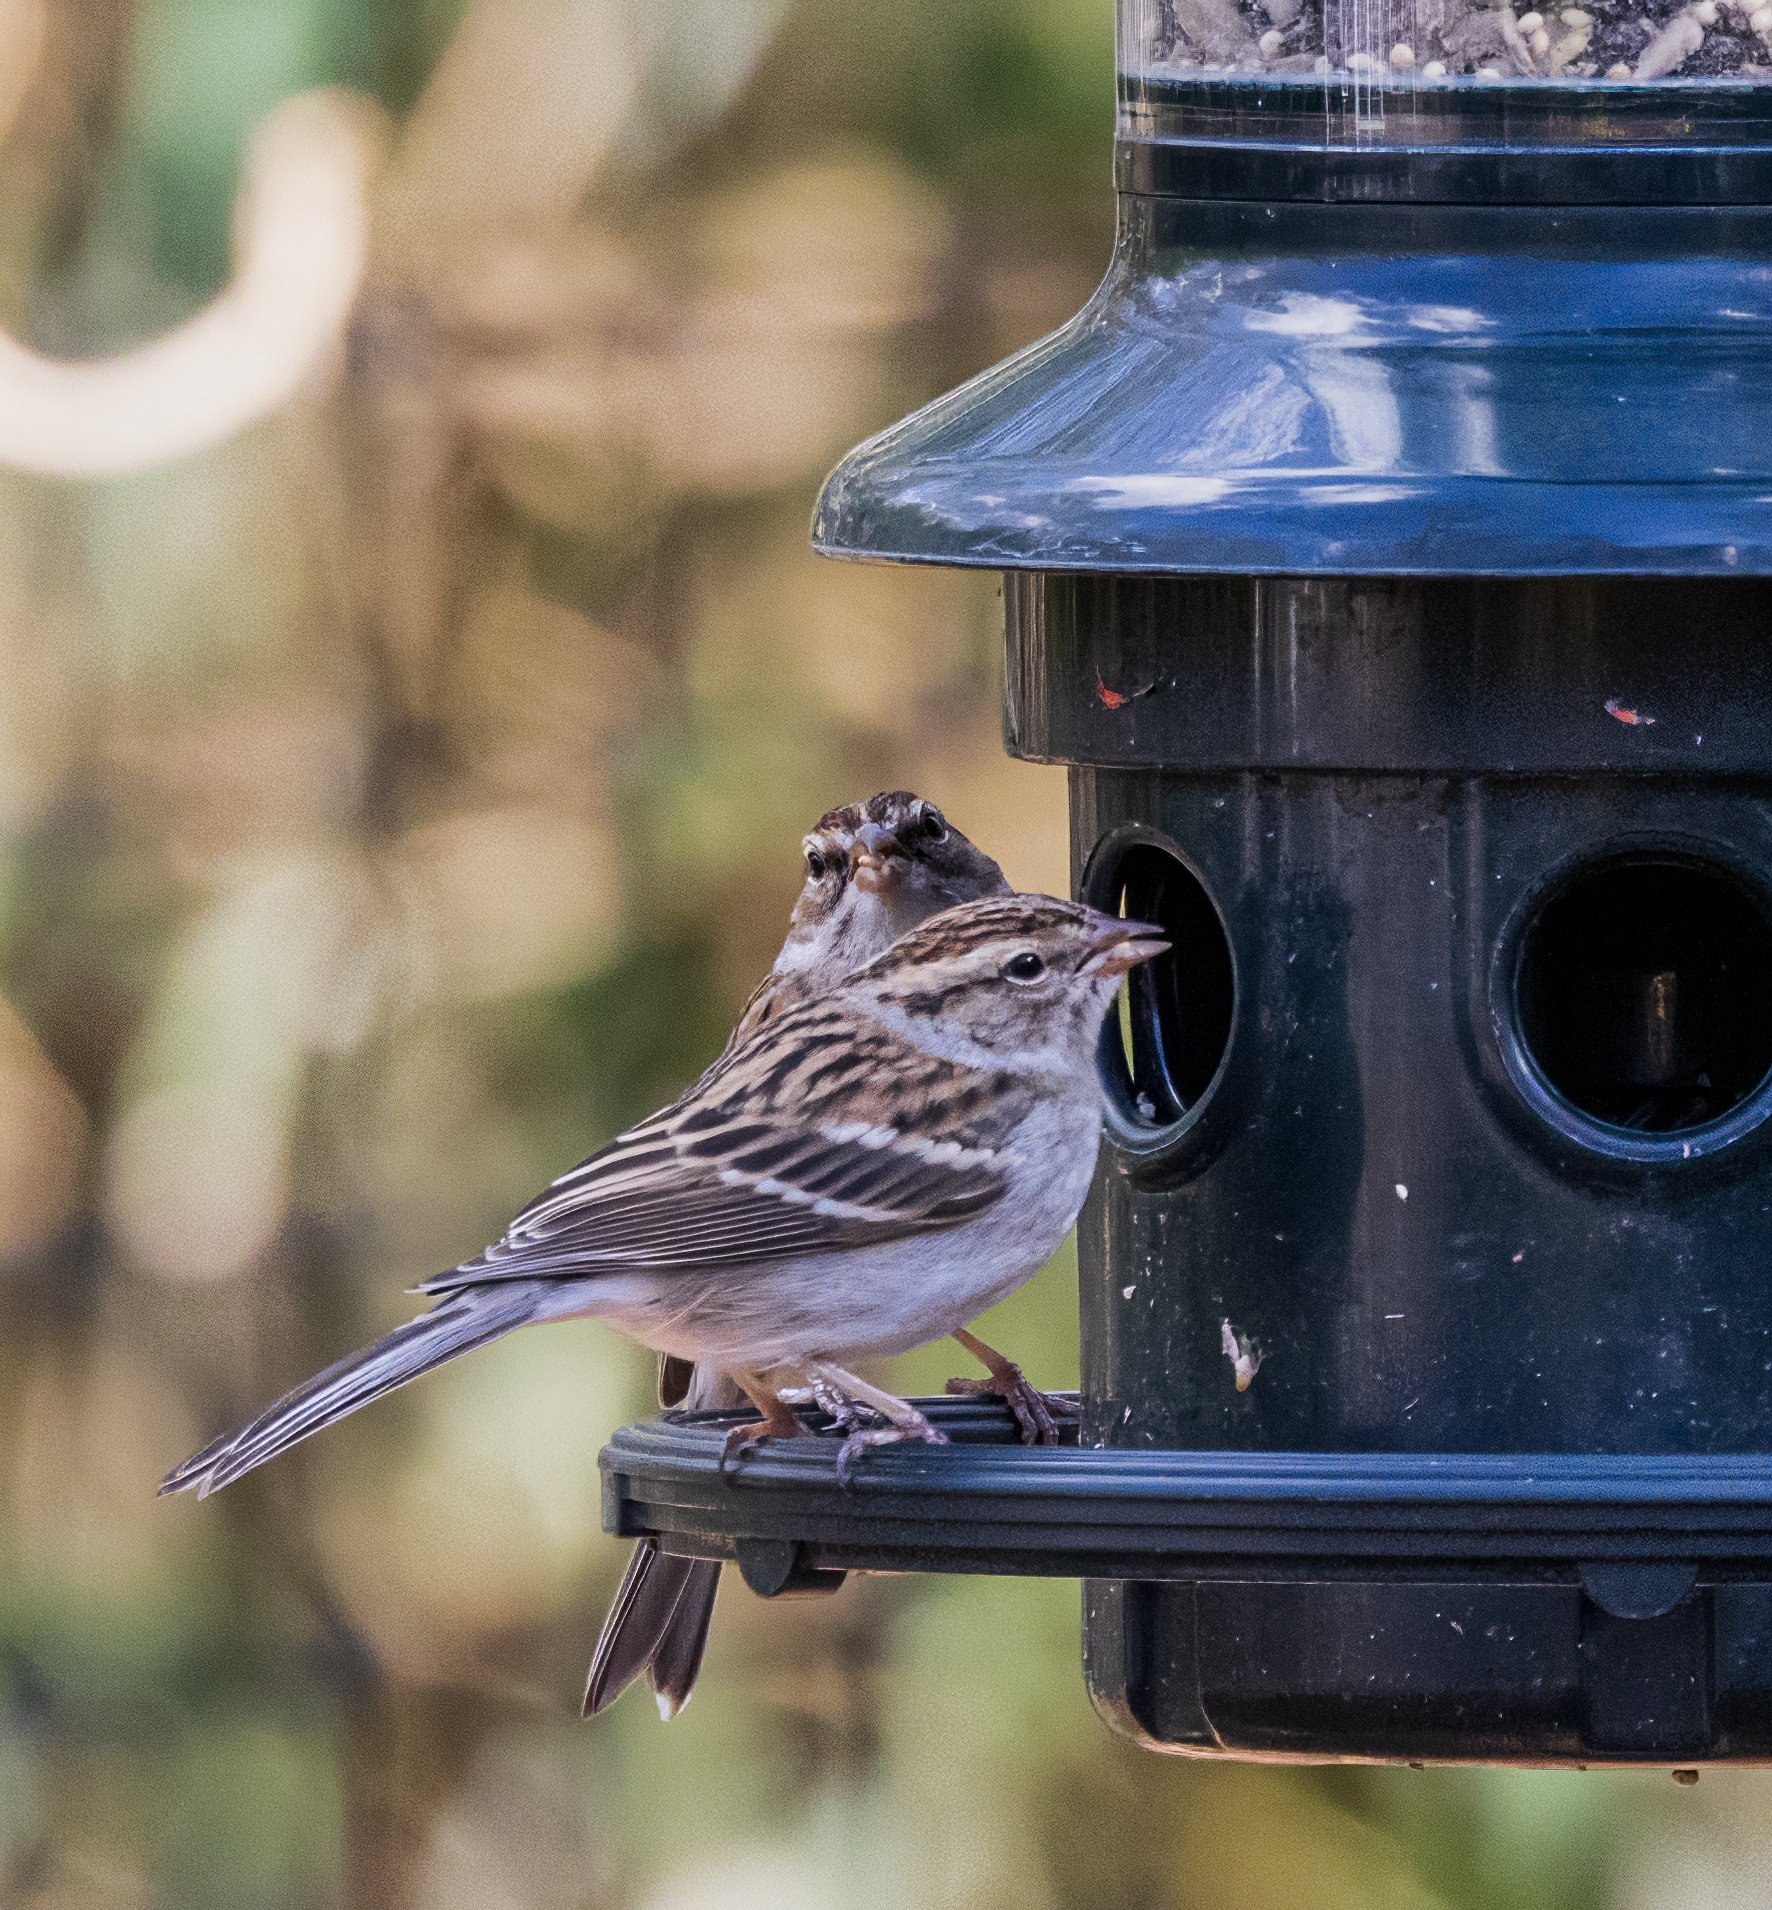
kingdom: Animalia
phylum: Chordata
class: Aves
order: Passeriformes
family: Passerellidae
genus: Spizella
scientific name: Spizella passerina
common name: Chipping sparrow
